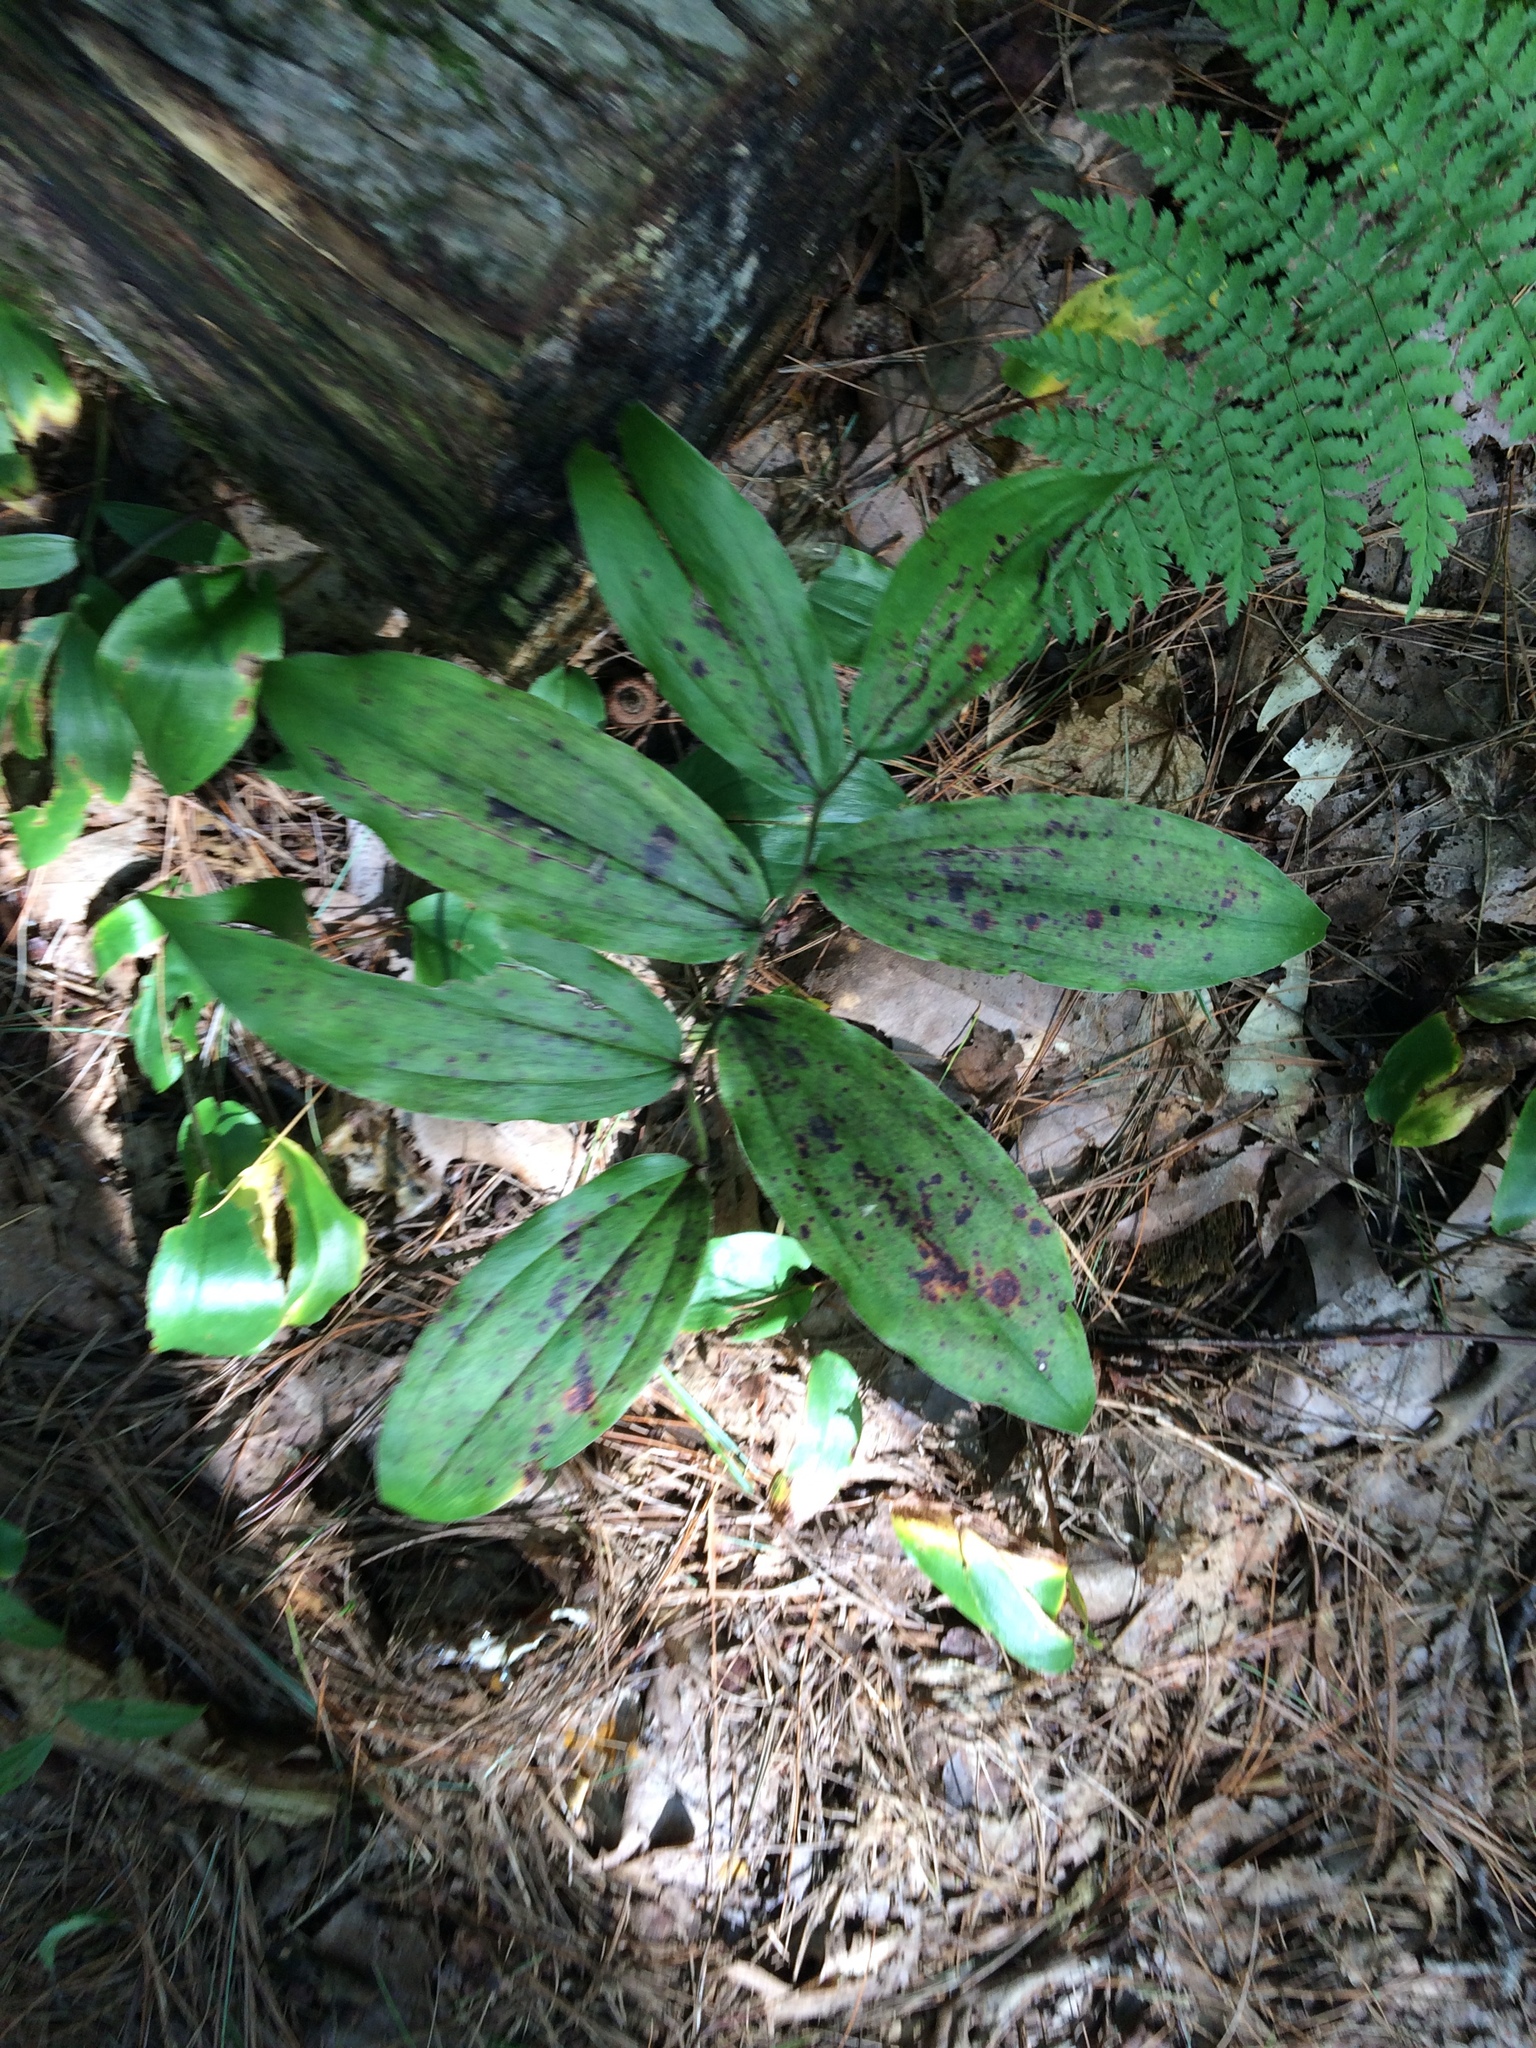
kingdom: Plantae
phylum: Tracheophyta
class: Liliopsida
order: Asparagales
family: Asparagaceae
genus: Maianthemum
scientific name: Maianthemum racemosum
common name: False spikenard
